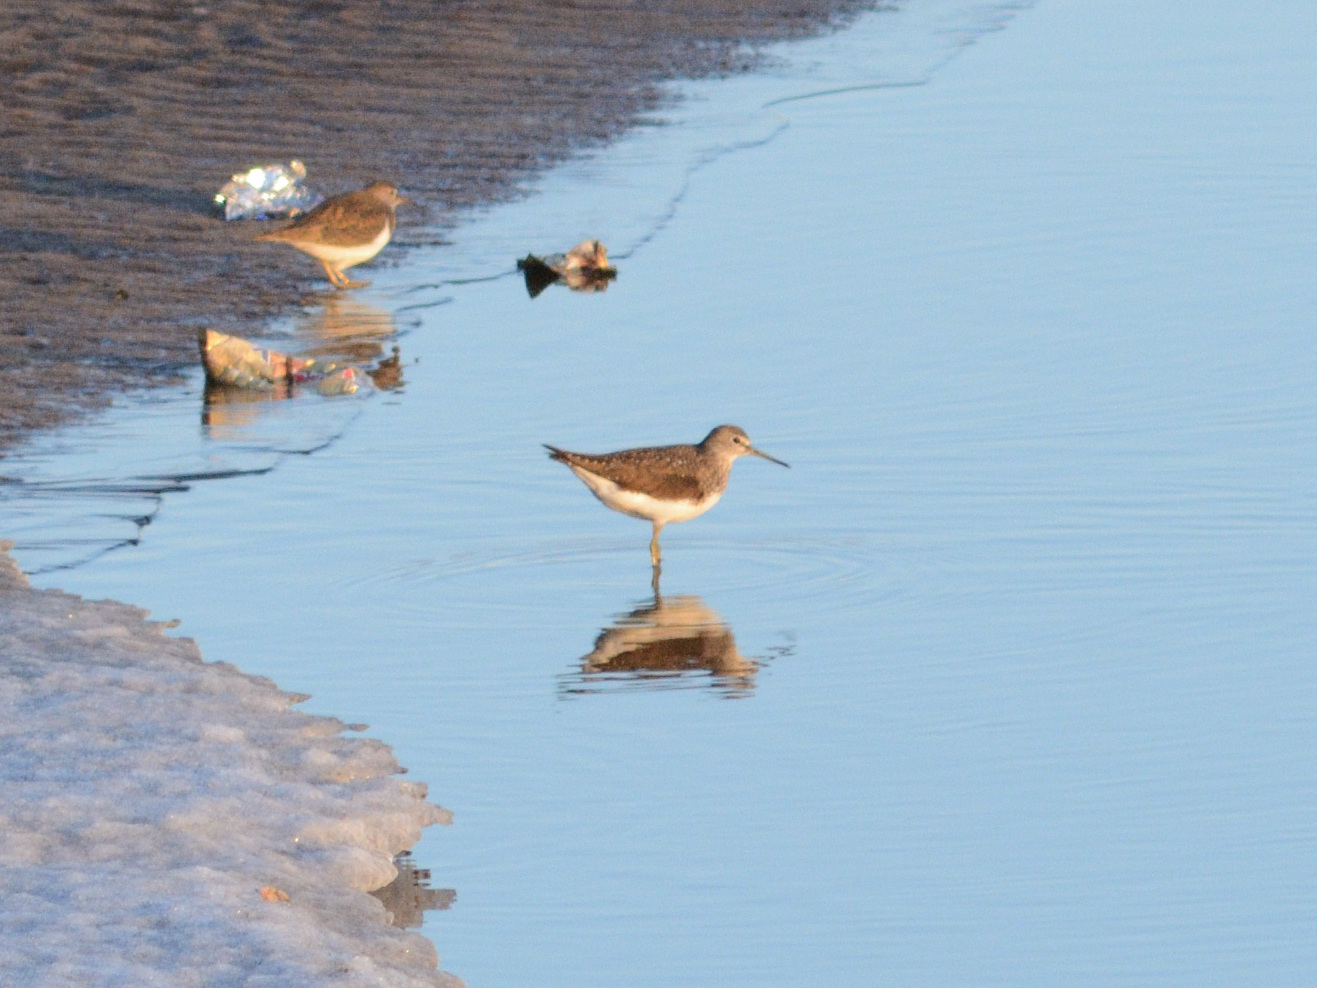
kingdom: Animalia
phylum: Chordata
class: Aves
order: Charadriiformes
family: Scolopacidae
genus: Tringa
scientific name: Tringa ochropus
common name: Green sandpiper
